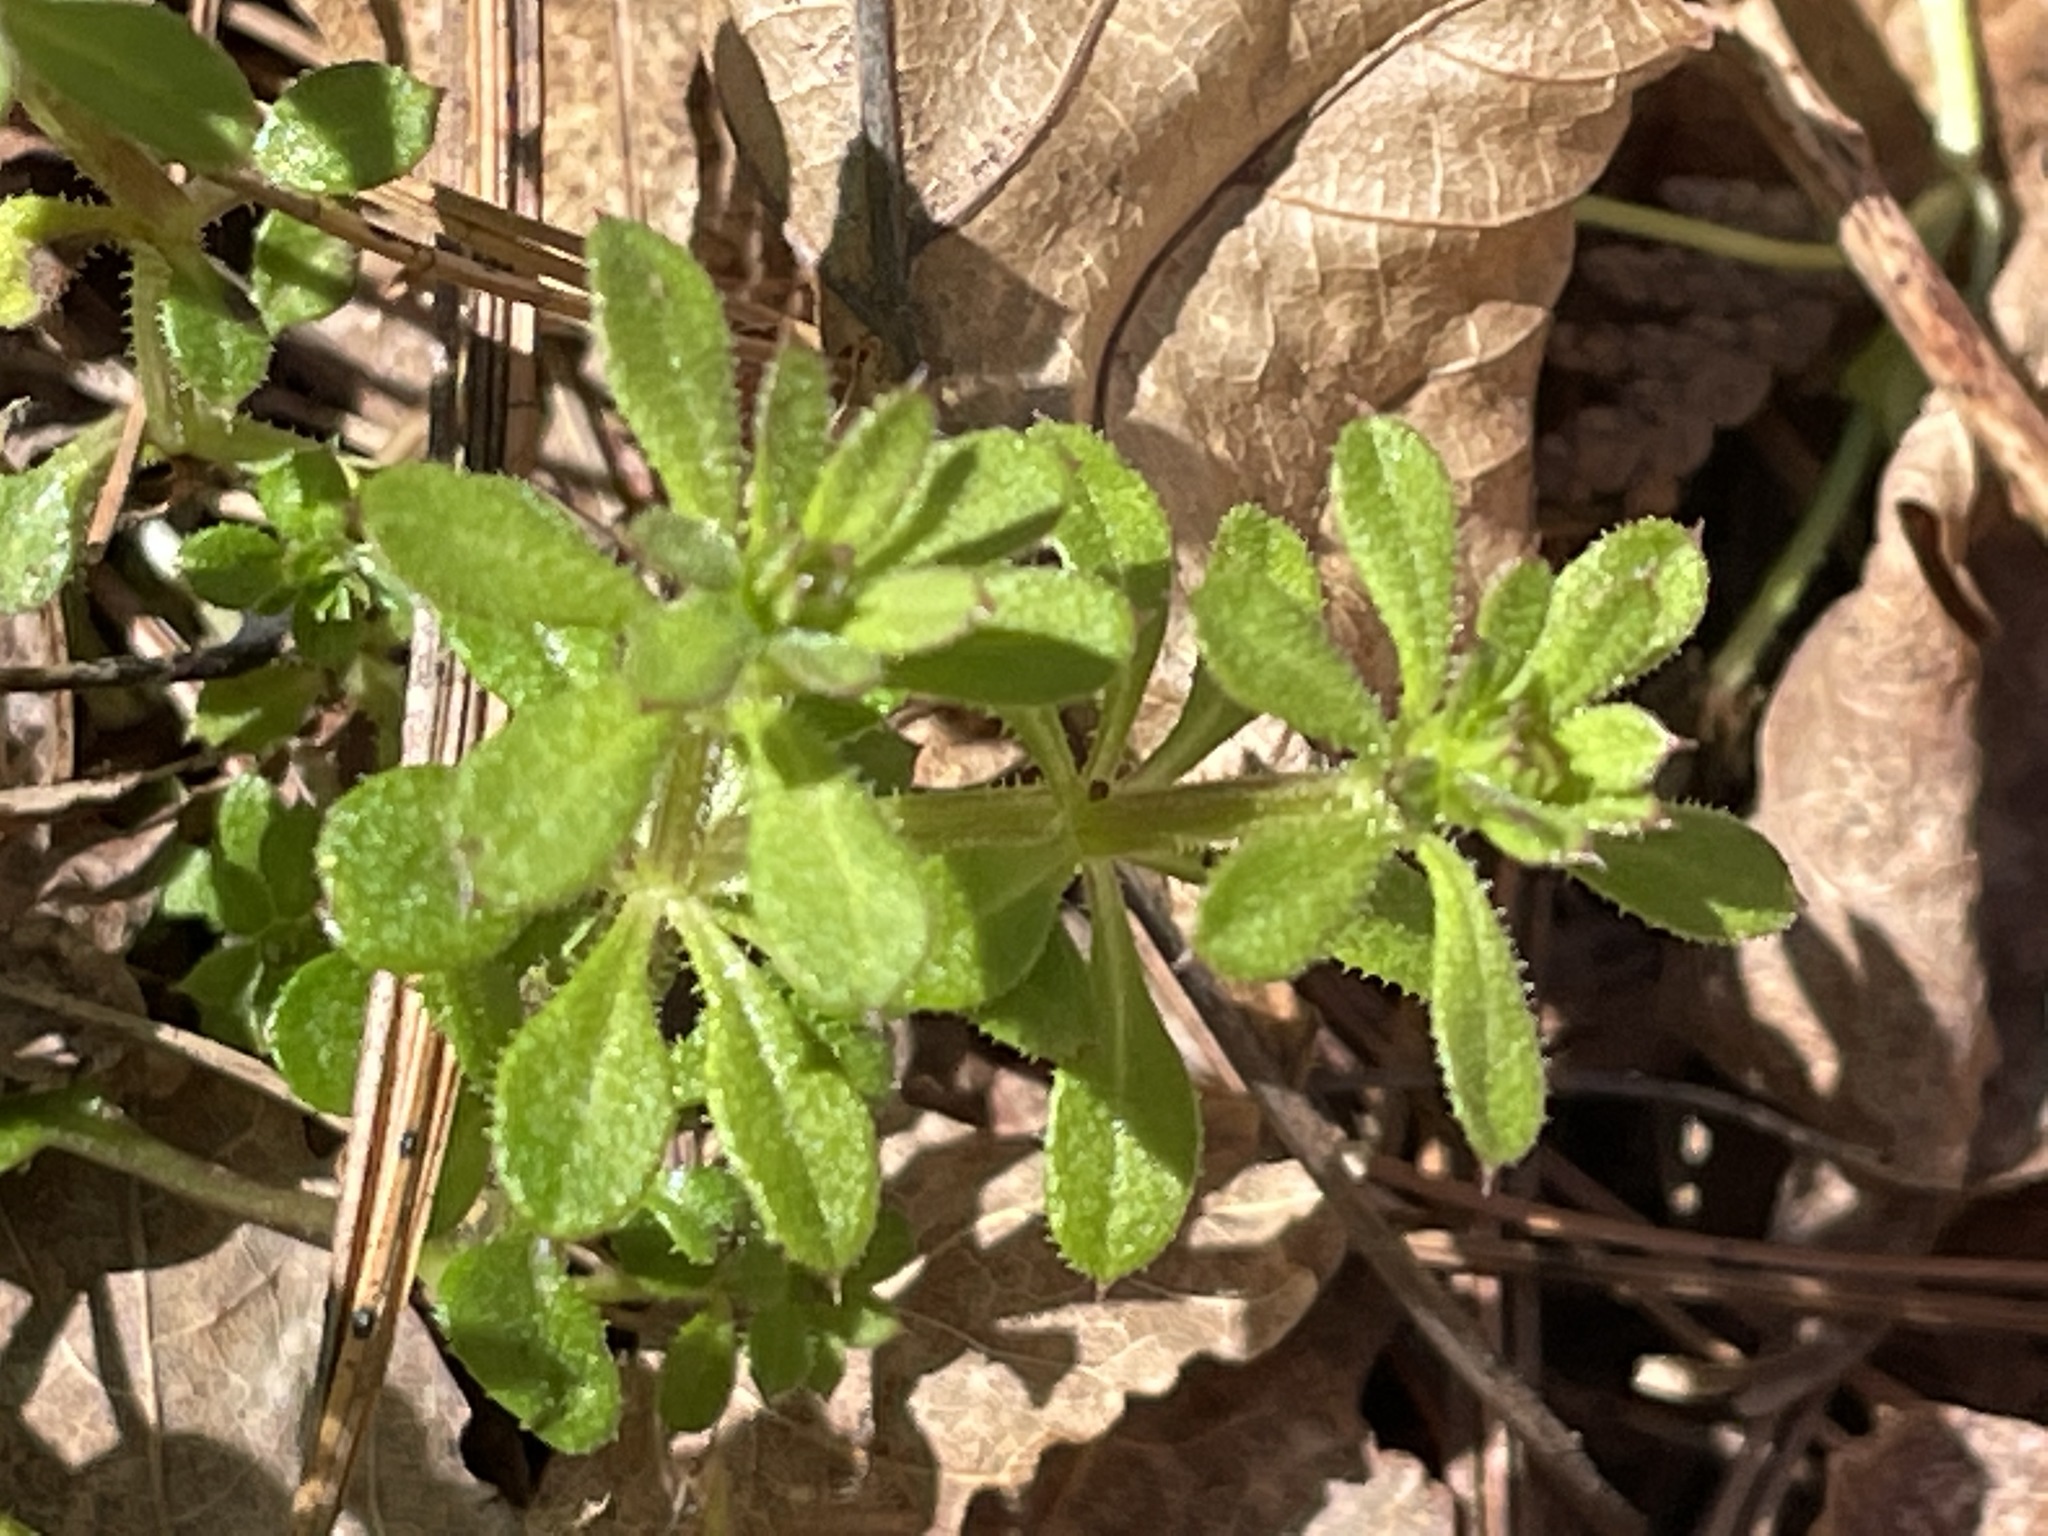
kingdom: Plantae
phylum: Tracheophyta
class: Magnoliopsida
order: Gentianales
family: Rubiaceae
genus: Galium
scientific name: Galium aparine
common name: Cleavers
